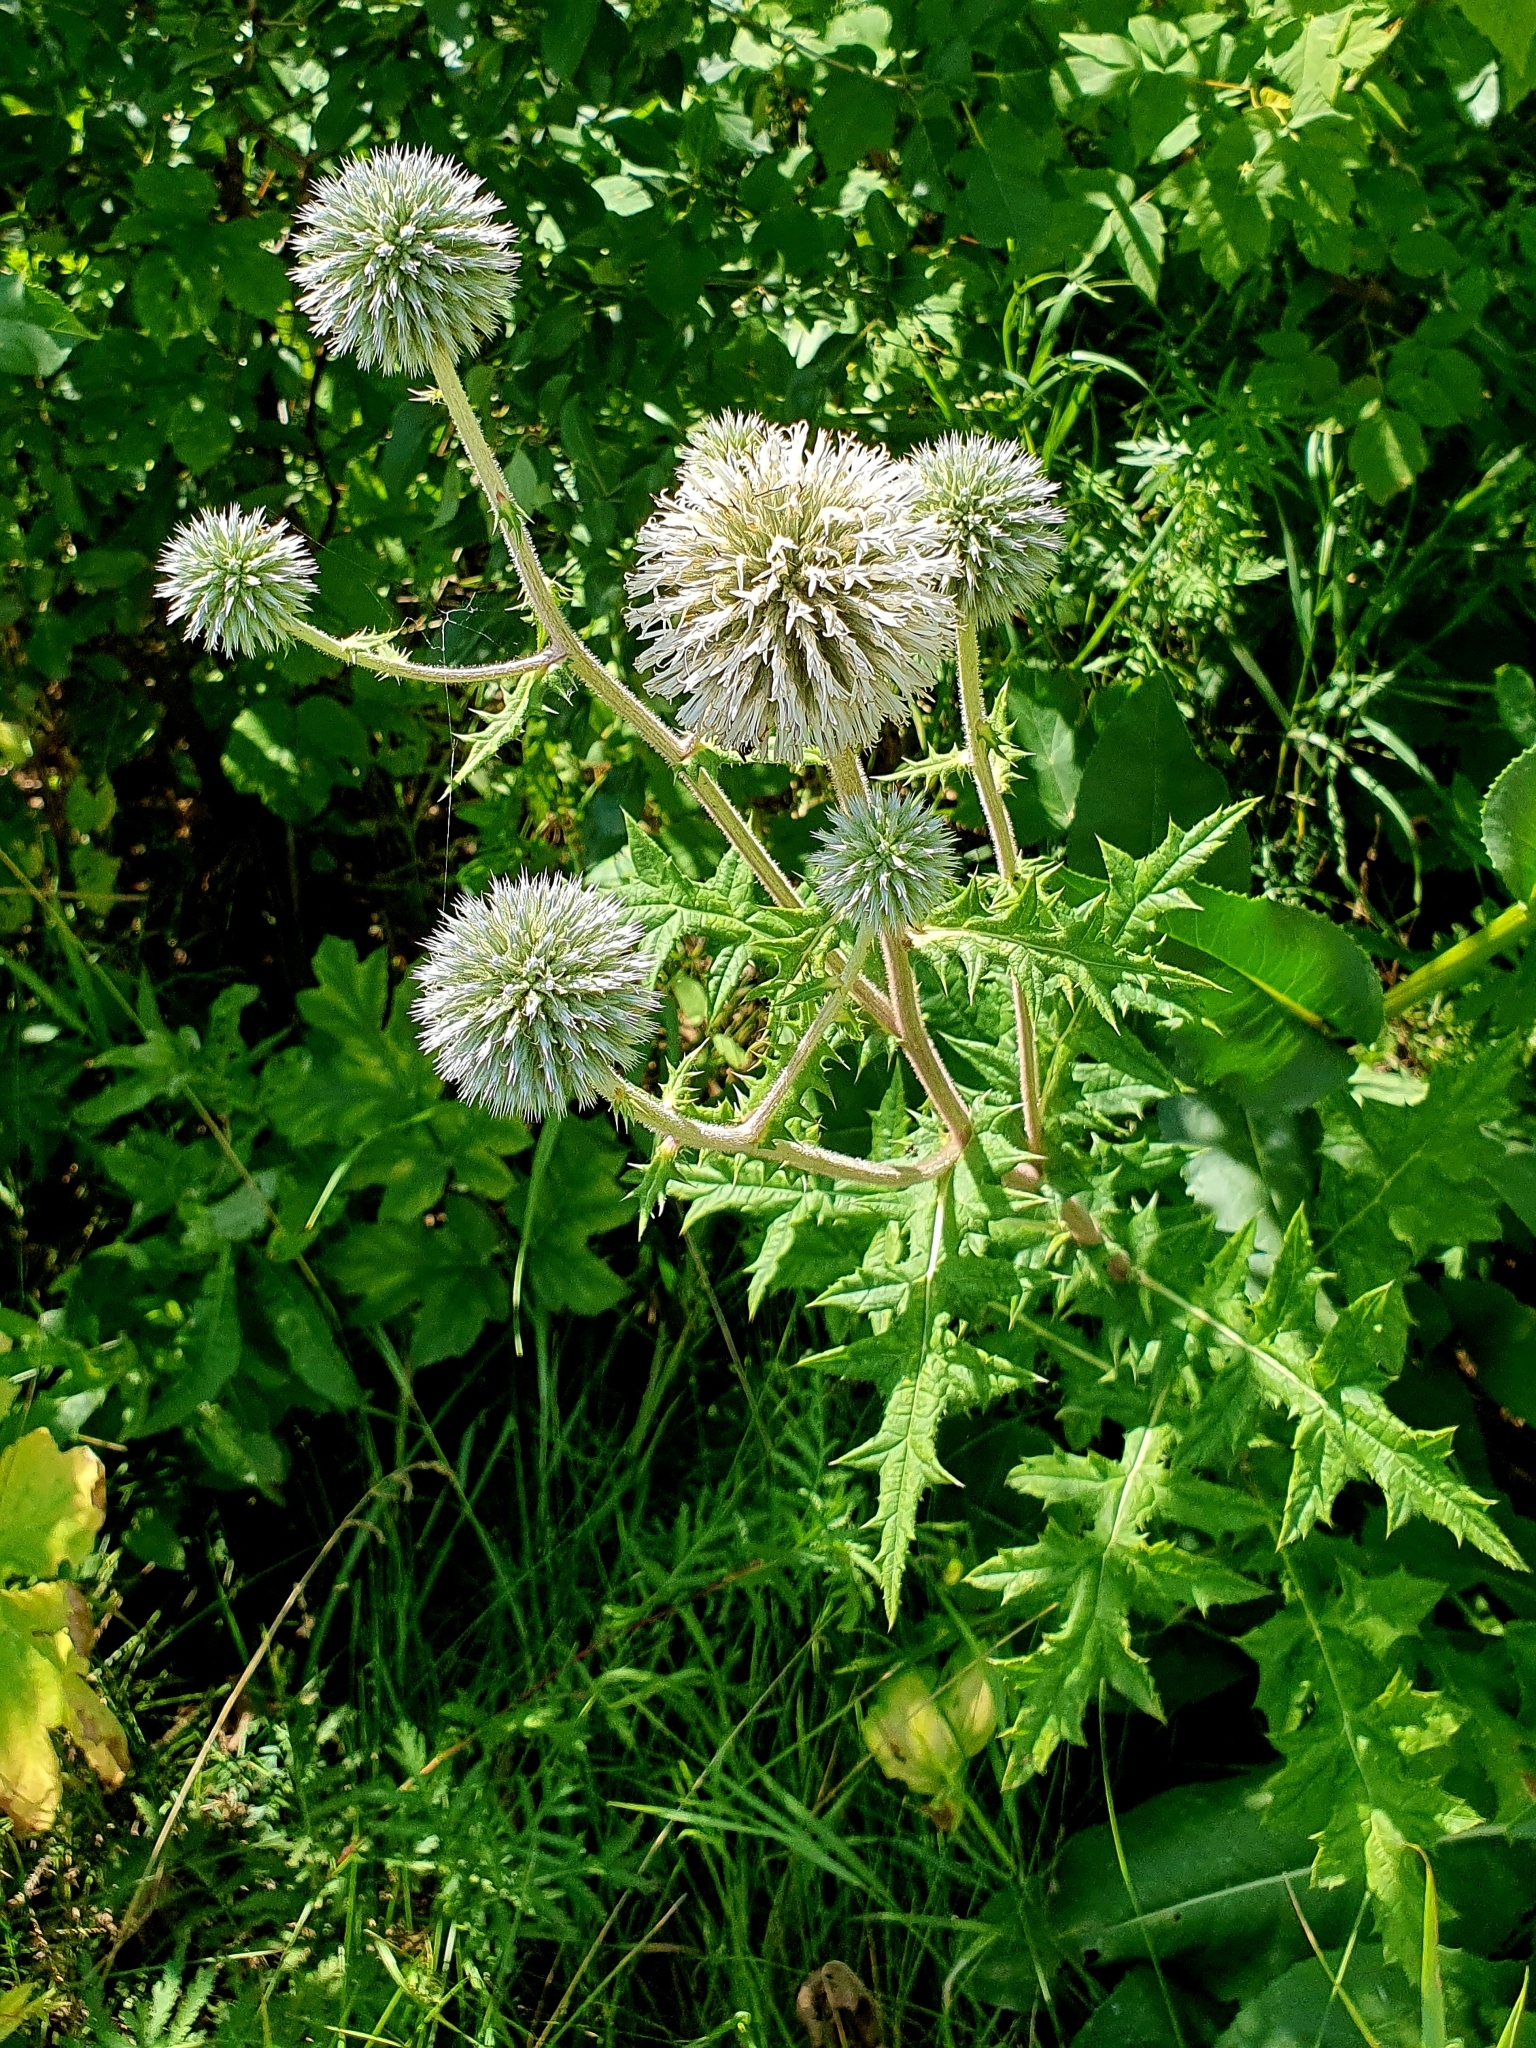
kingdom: Plantae
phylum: Tracheophyta
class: Magnoliopsida
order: Asterales
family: Asteraceae
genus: Echinops
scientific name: Echinops sphaerocephalus
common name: Glandular globe-thistle
